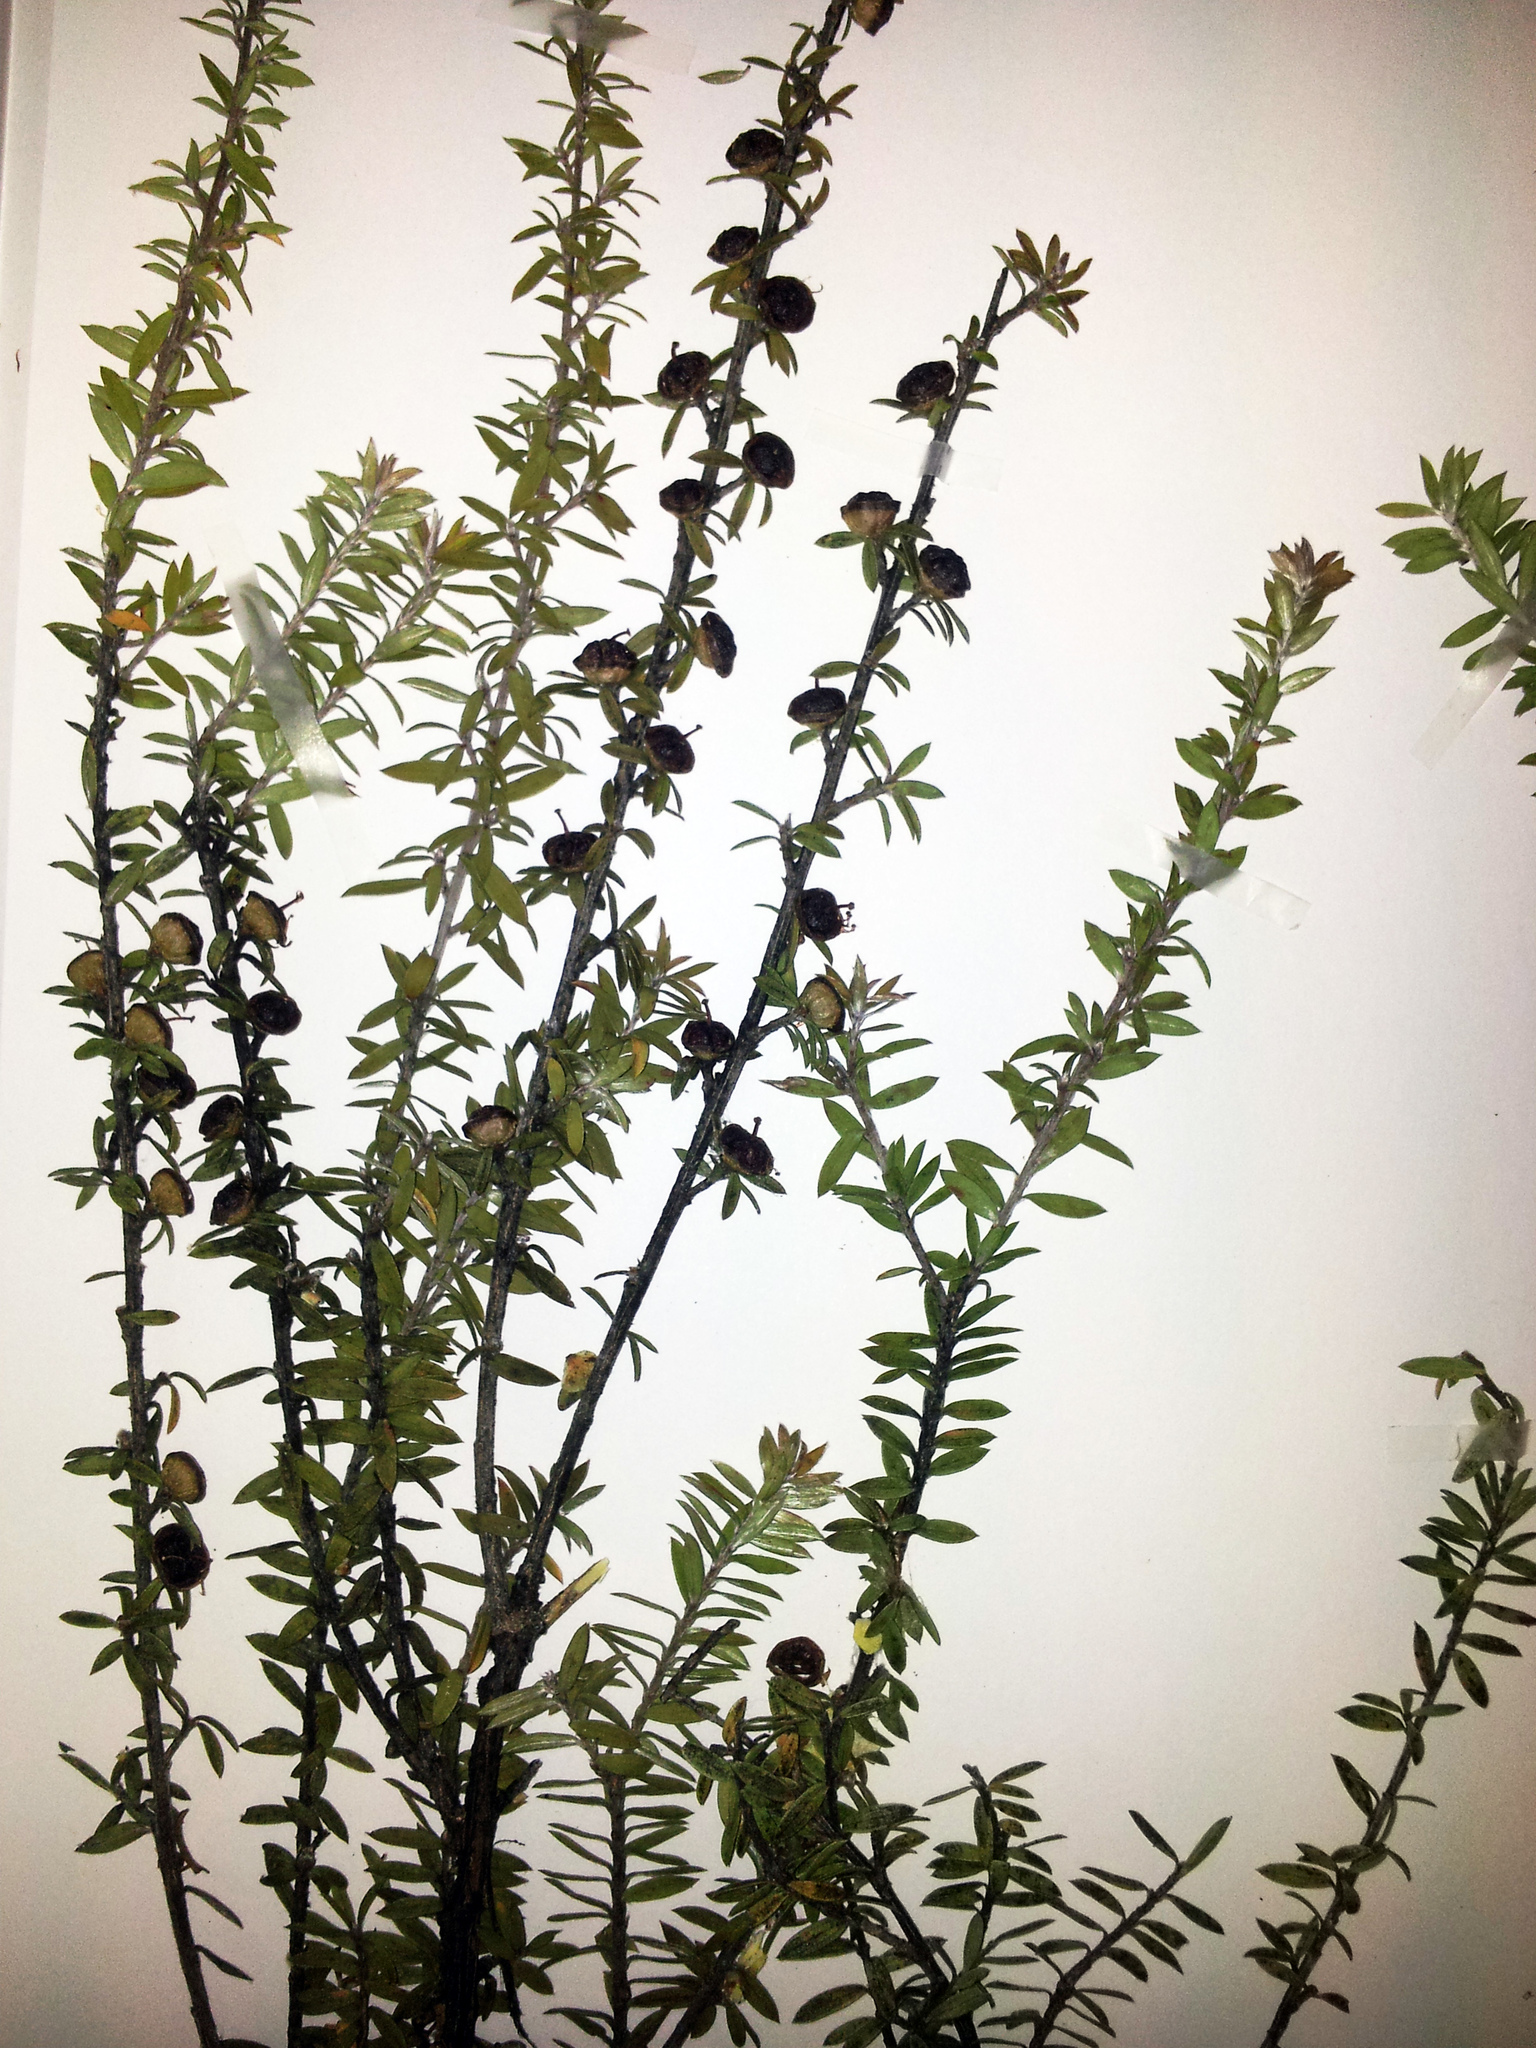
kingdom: Plantae
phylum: Tracheophyta
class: Magnoliopsida
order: Myrtales
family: Myrtaceae
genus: Leptospermum
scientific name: Leptospermum scoparium
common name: Broom tea-tree
